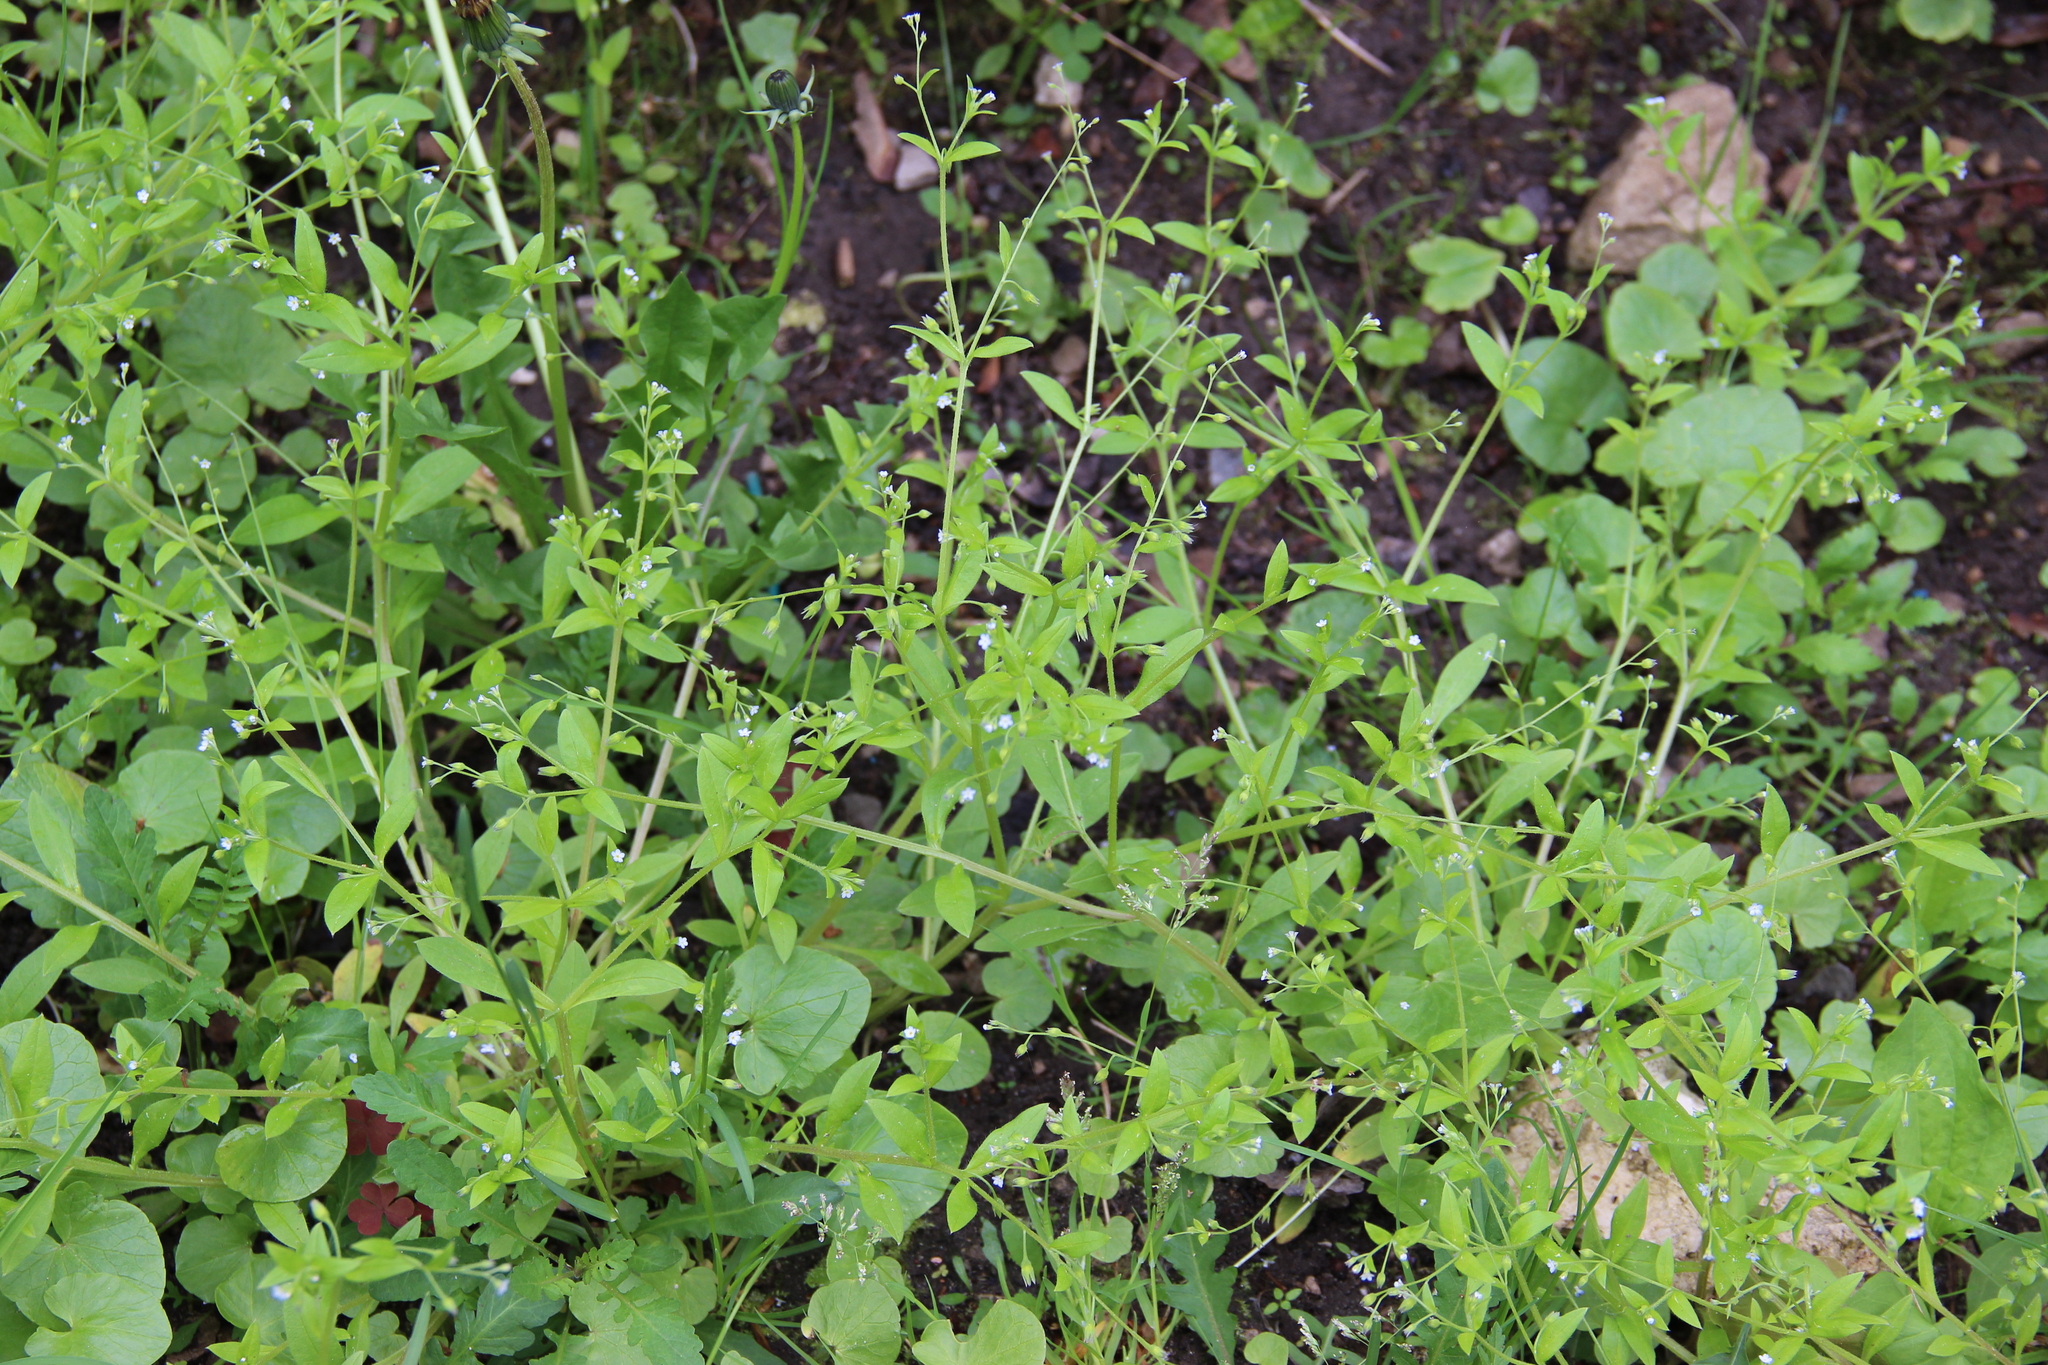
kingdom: Plantae
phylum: Tracheophyta
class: Magnoliopsida
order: Boraginales
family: Boraginaceae
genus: Myosotis
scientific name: Myosotis sparsiflora
